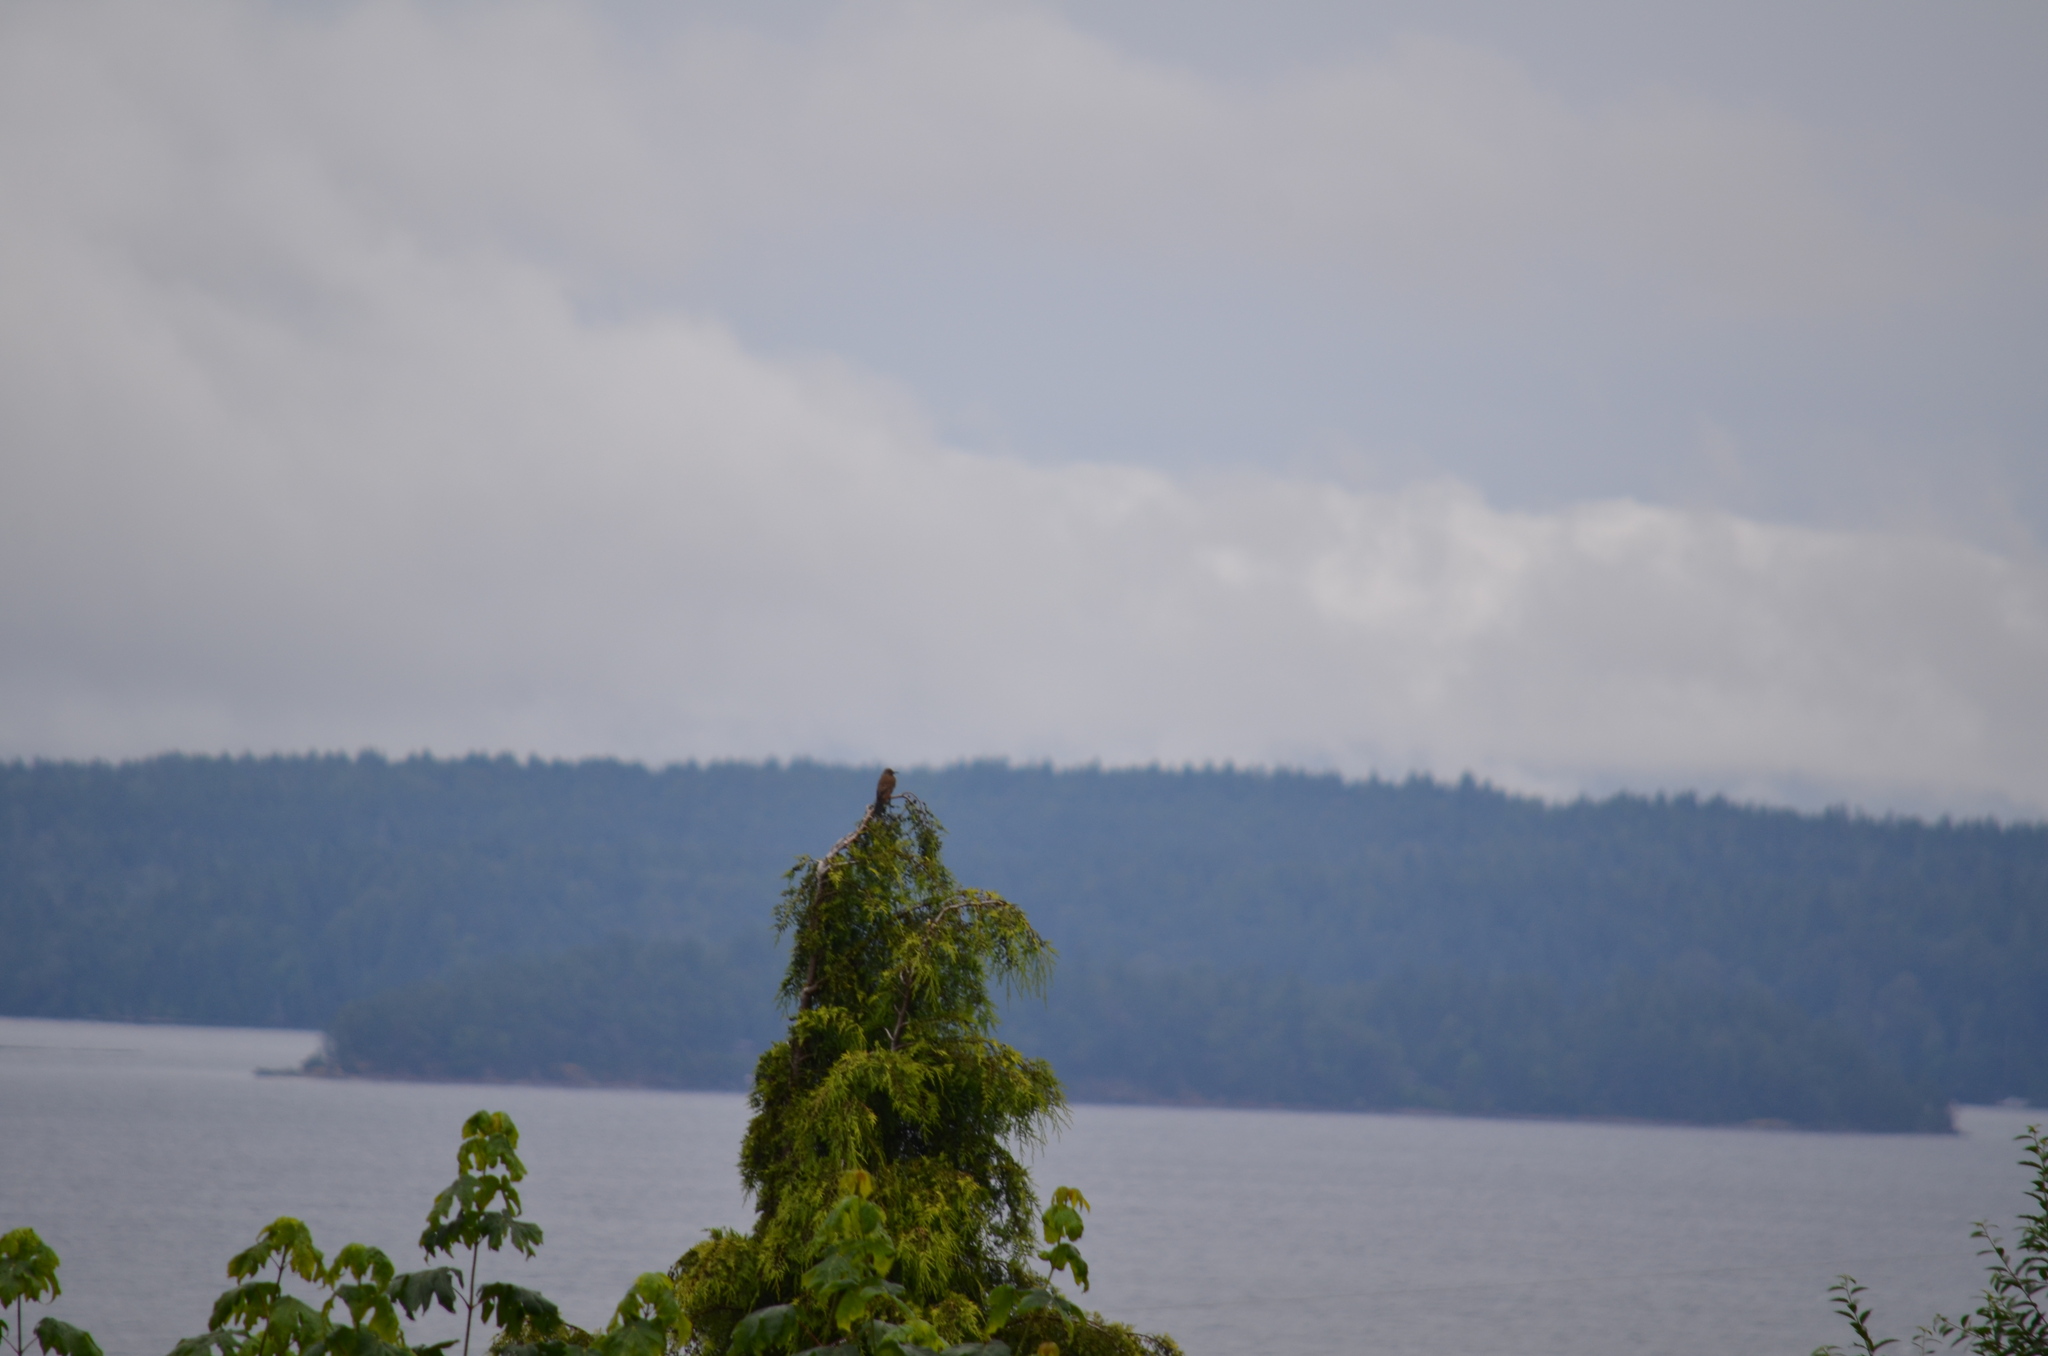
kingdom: Animalia
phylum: Chordata
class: Aves
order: Piciformes
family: Picidae
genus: Colaptes
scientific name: Colaptes auratus
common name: Northern flicker
